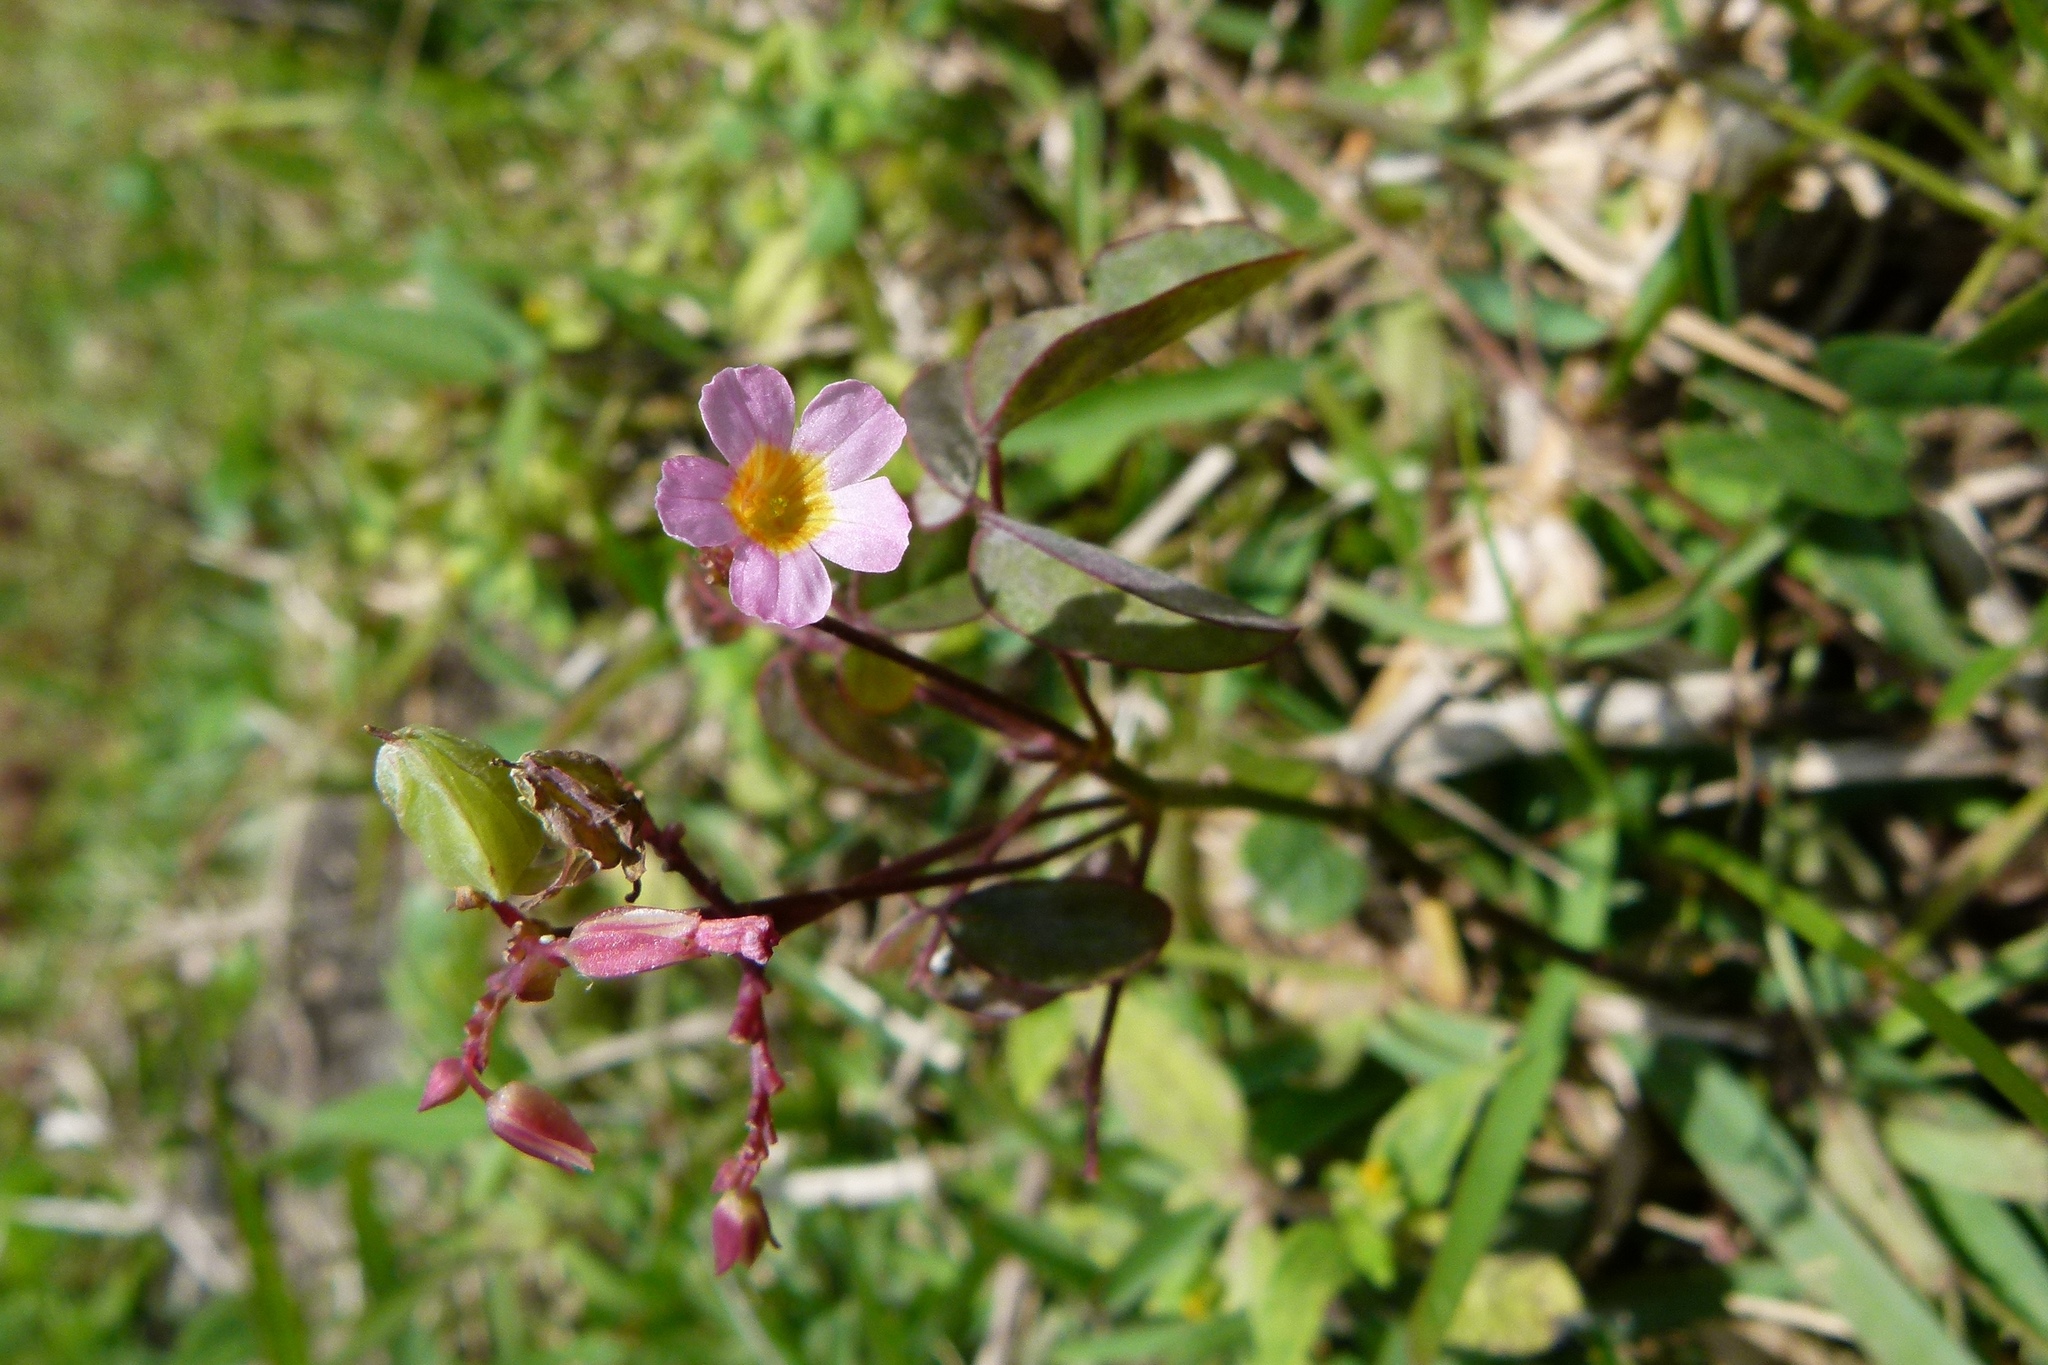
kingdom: Plantae
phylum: Tracheophyta
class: Magnoliopsida
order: Oxalidales
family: Oxalidaceae
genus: Oxalis
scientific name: Oxalis barrelieri
